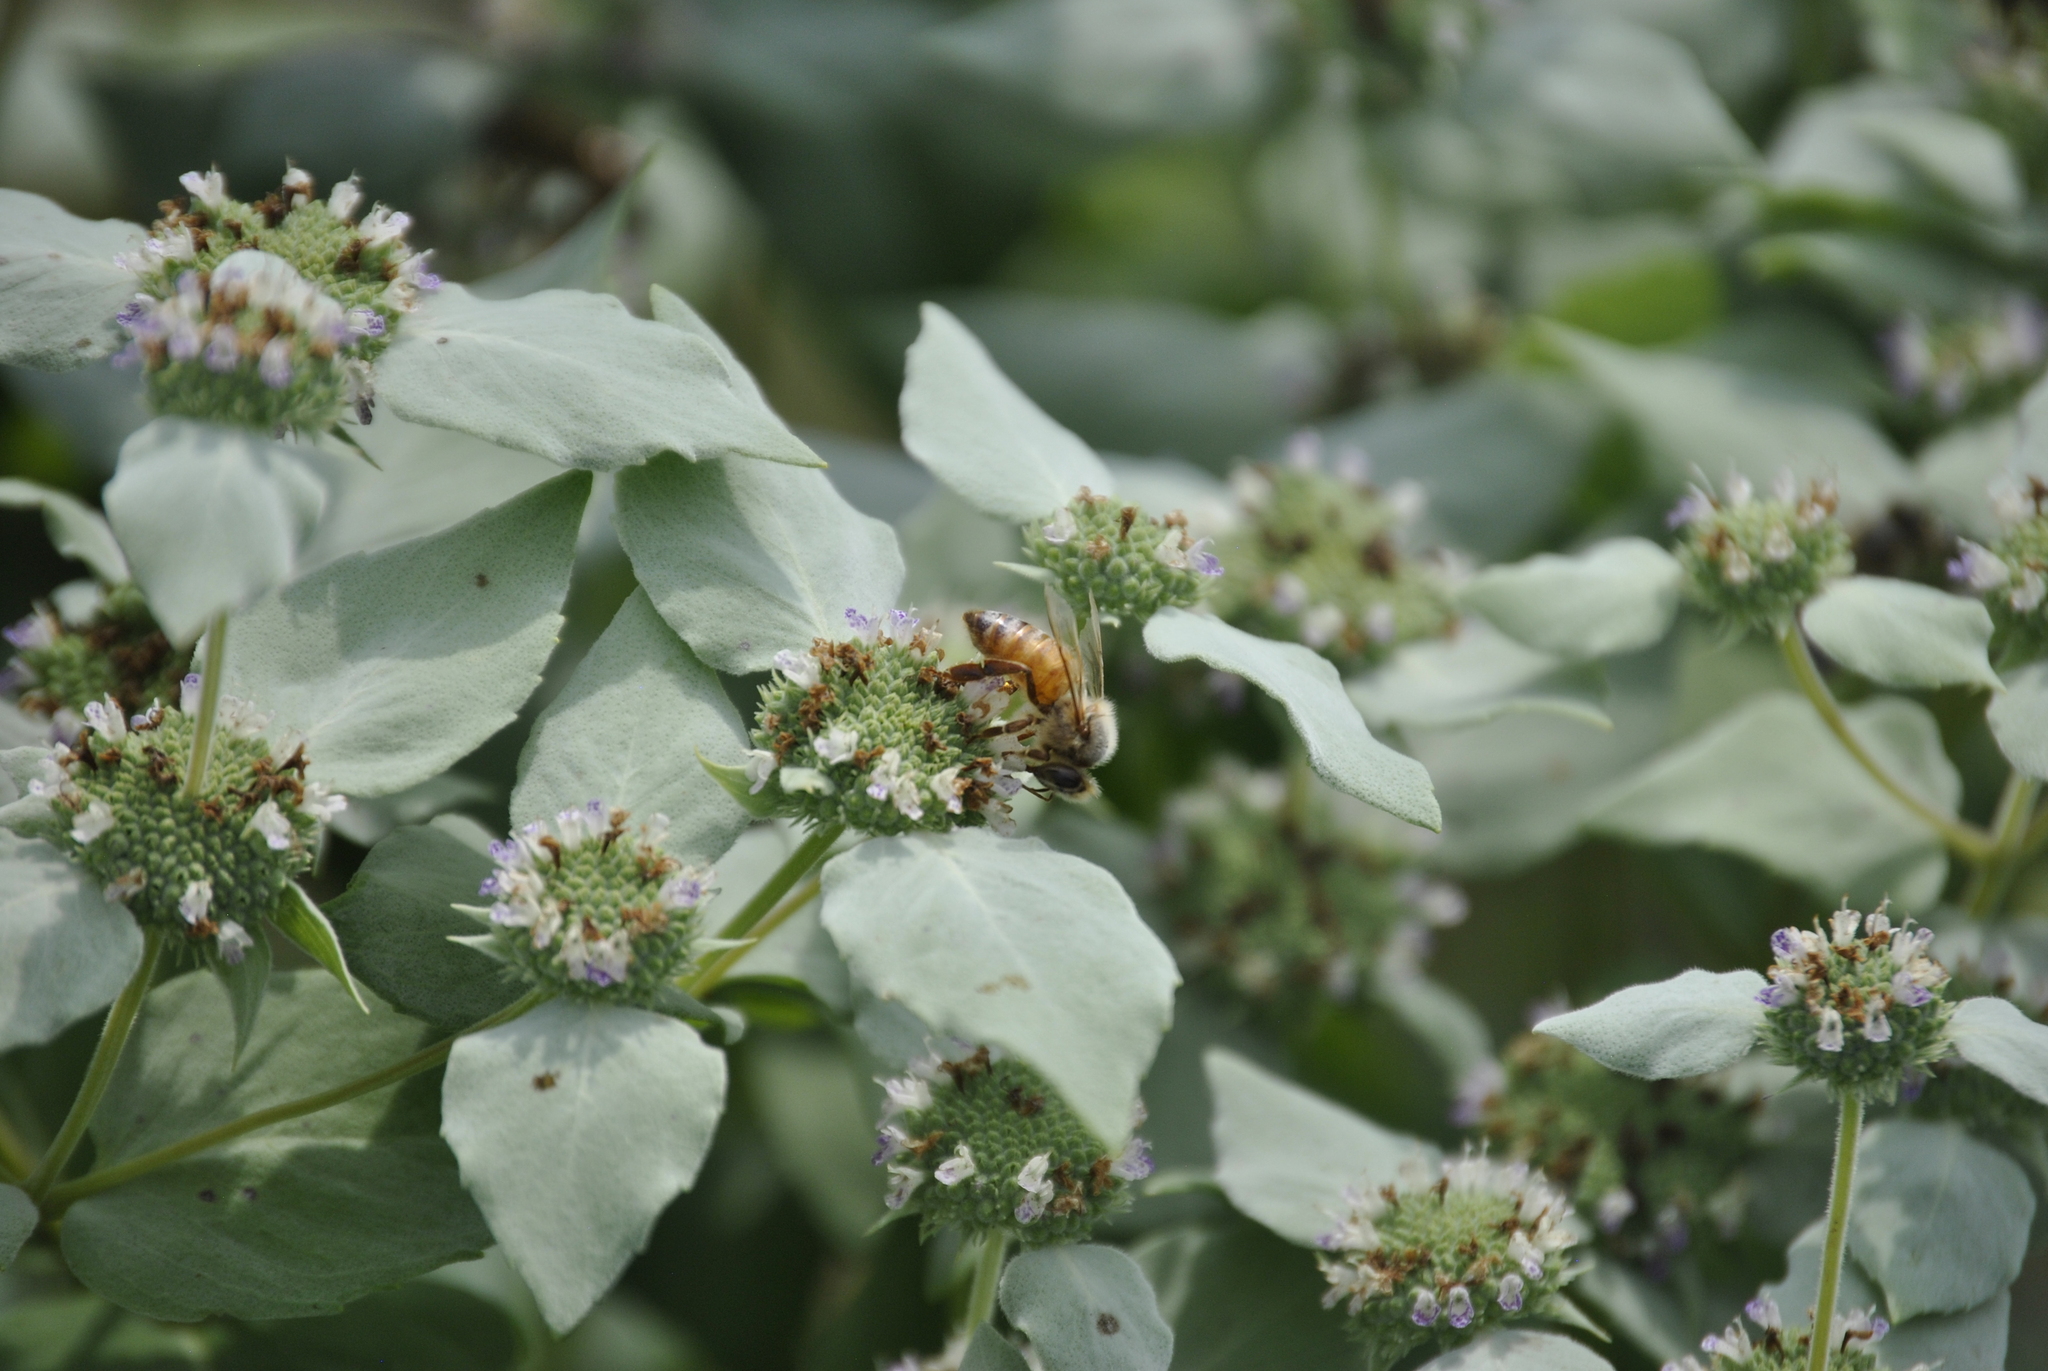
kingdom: Animalia
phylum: Arthropoda
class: Insecta
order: Hymenoptera
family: Apidae
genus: Apis
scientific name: Apis mellifera
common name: Honey bee
